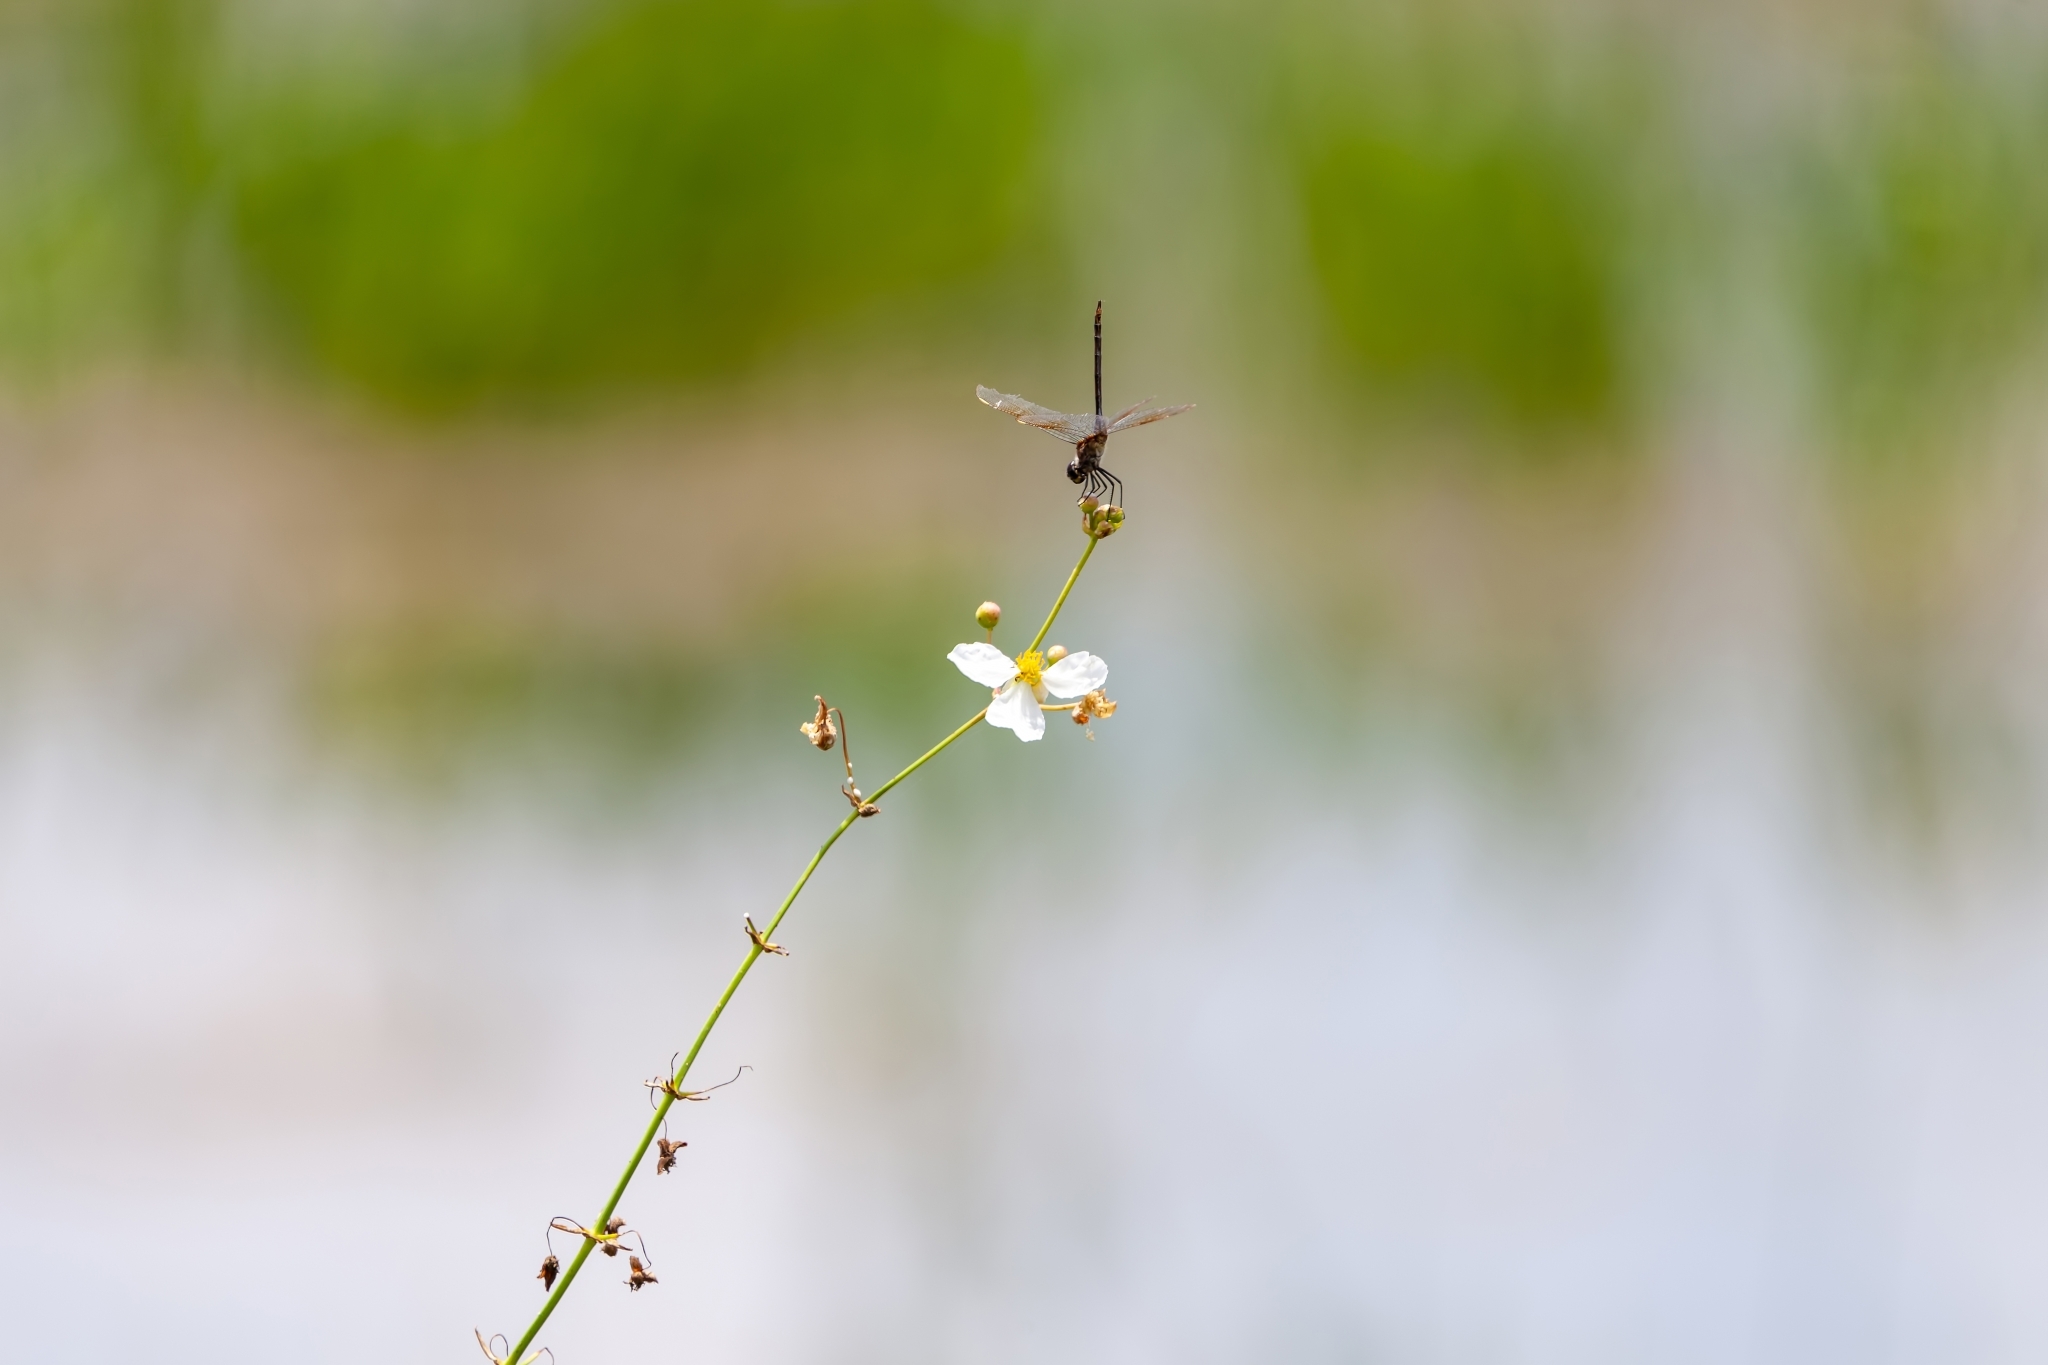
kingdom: Animalia
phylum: Arthropoda
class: Insecta
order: Odonata
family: Libellulidae
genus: Brachymesia
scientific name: Brachymesia gravida
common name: Four-spotted pennant
